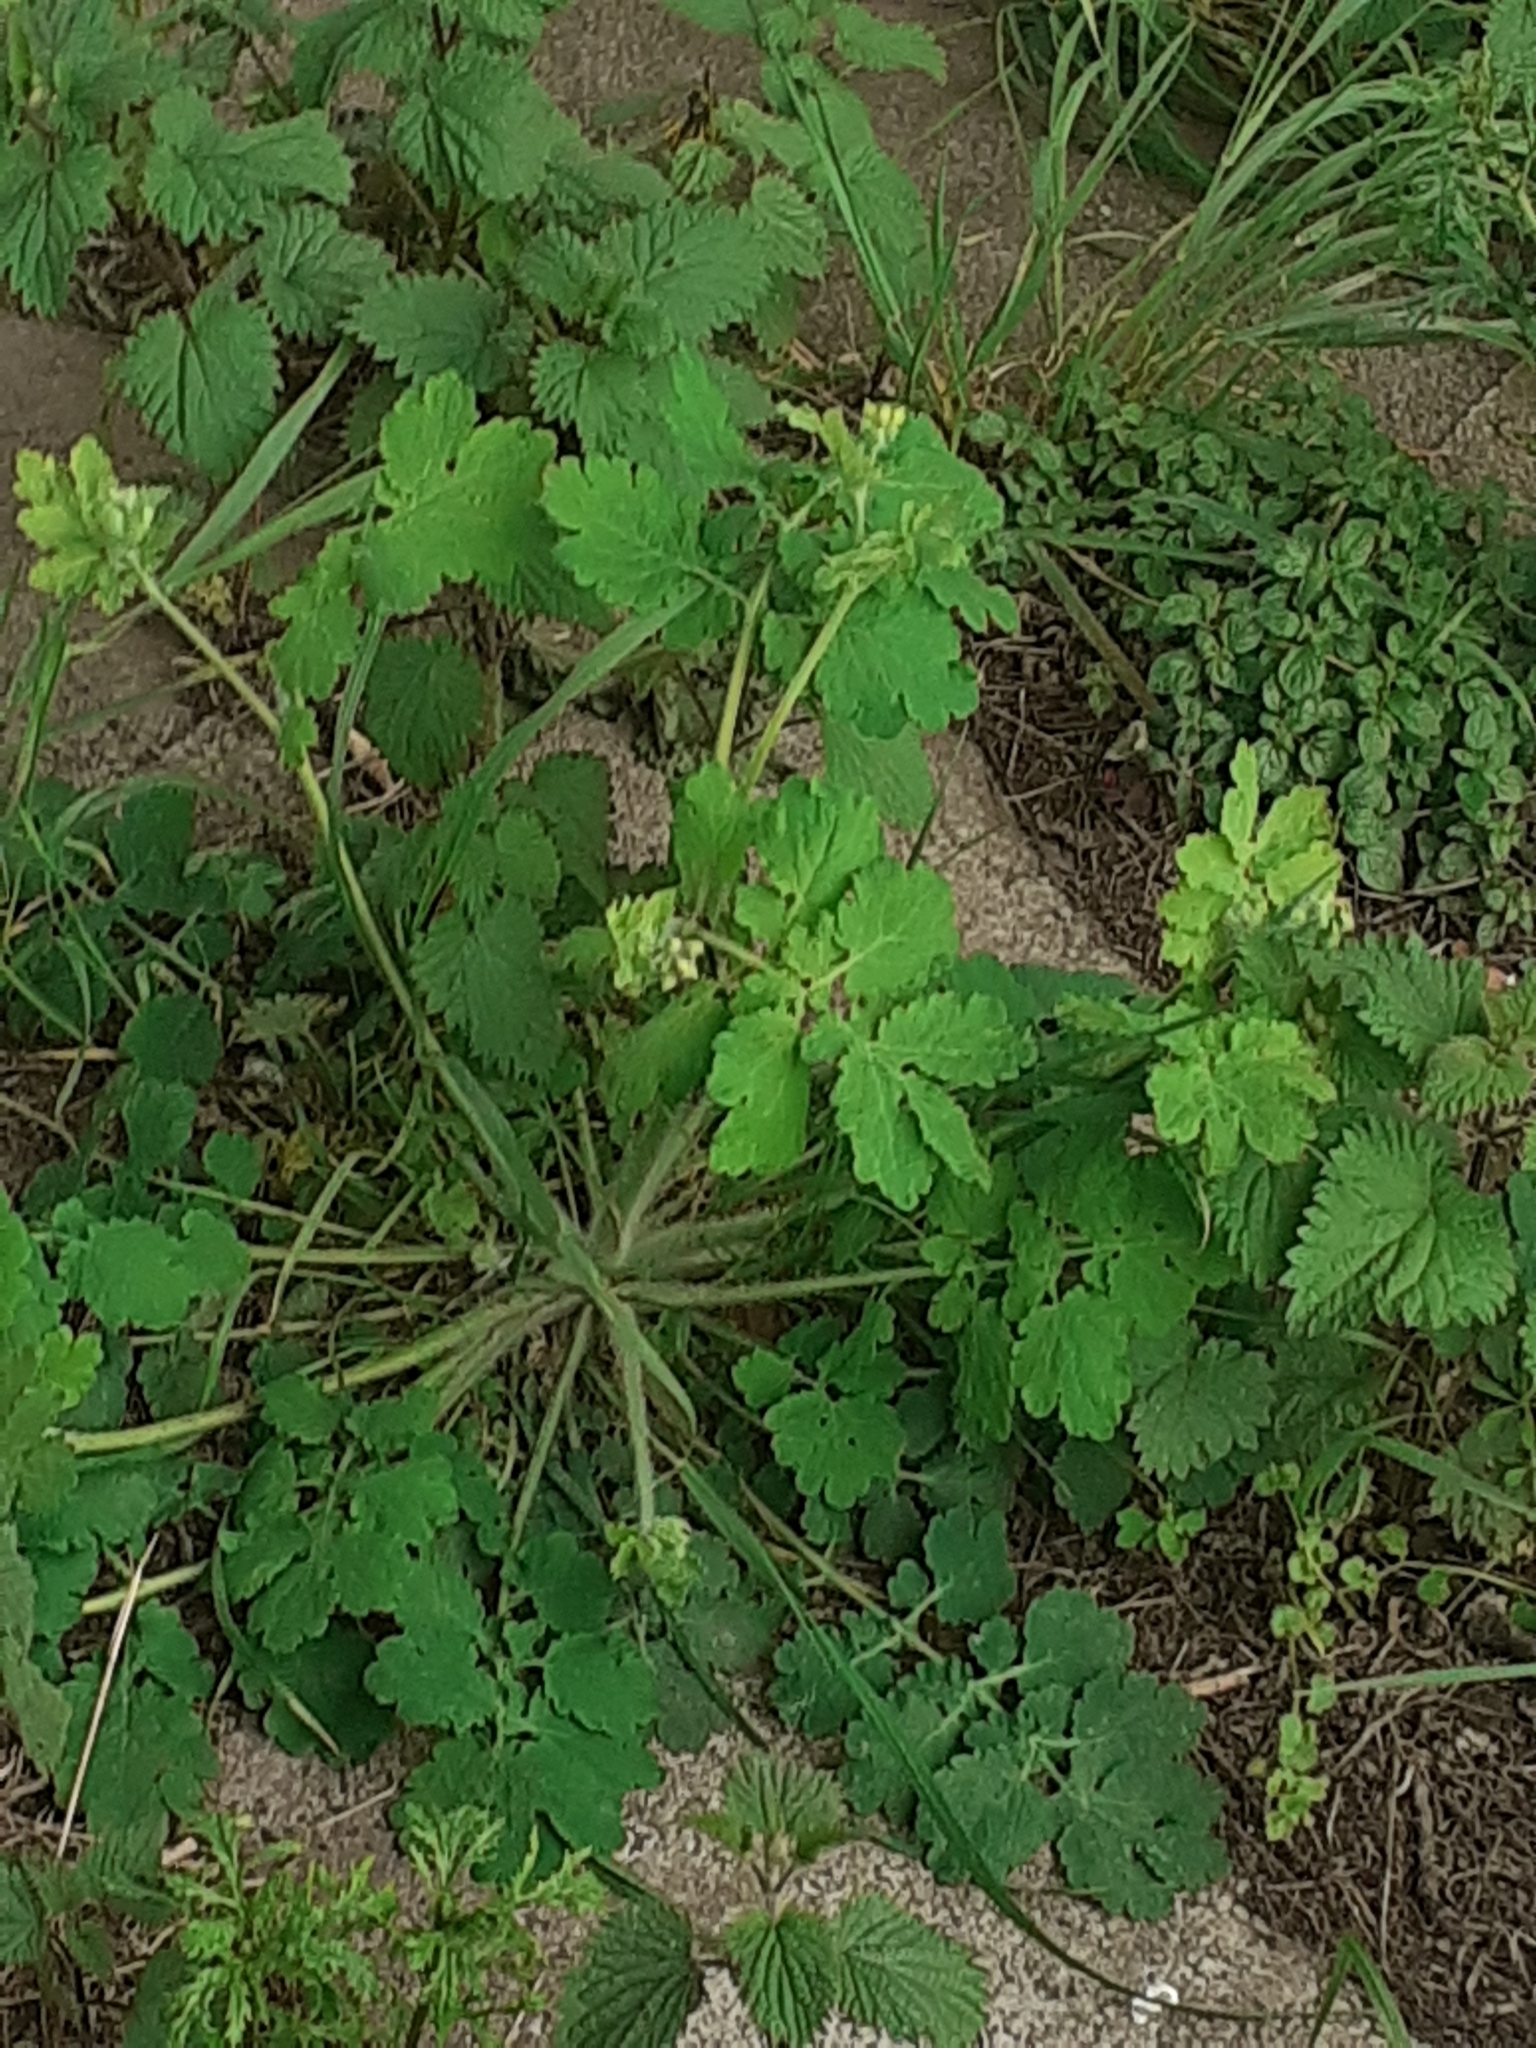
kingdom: Plantae
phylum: Tracheophyta
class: Magnoliopsida
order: Ranunculales
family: Papaveraceae
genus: Chelidonium
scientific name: Chelidonium majus
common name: Greater celandine
